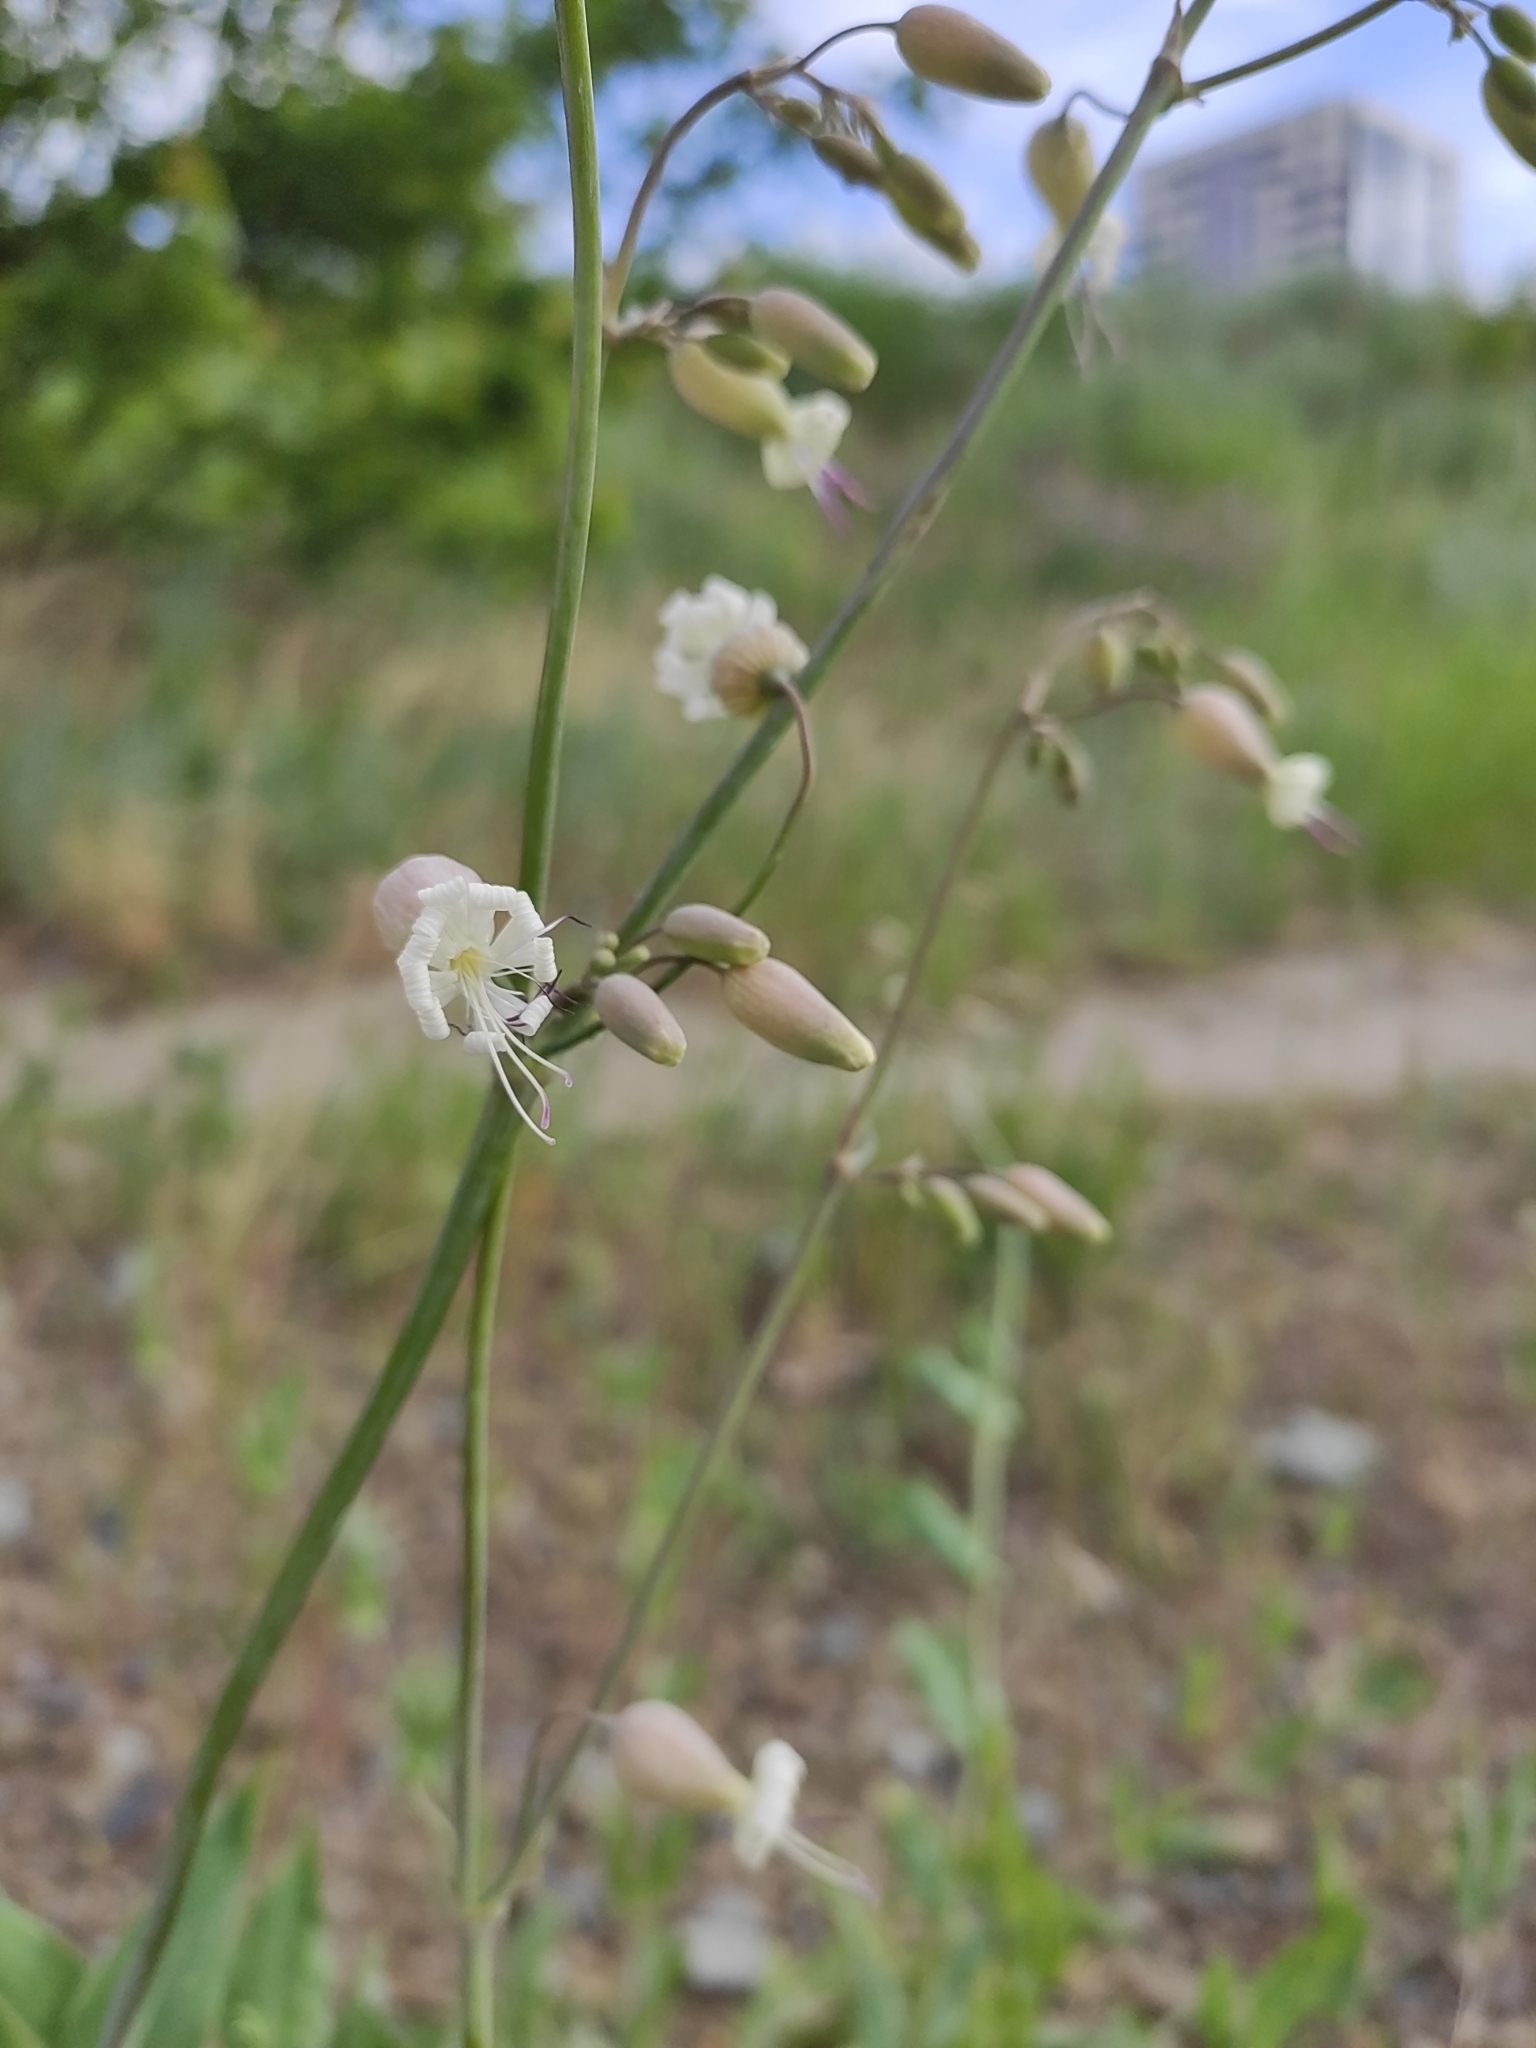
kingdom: Plantae
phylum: Tracheophyta
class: Magnoliopsida
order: Caryophyllales
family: Caryophyllaceae
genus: Silene
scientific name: Silene csereii
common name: Balkan catchfly
